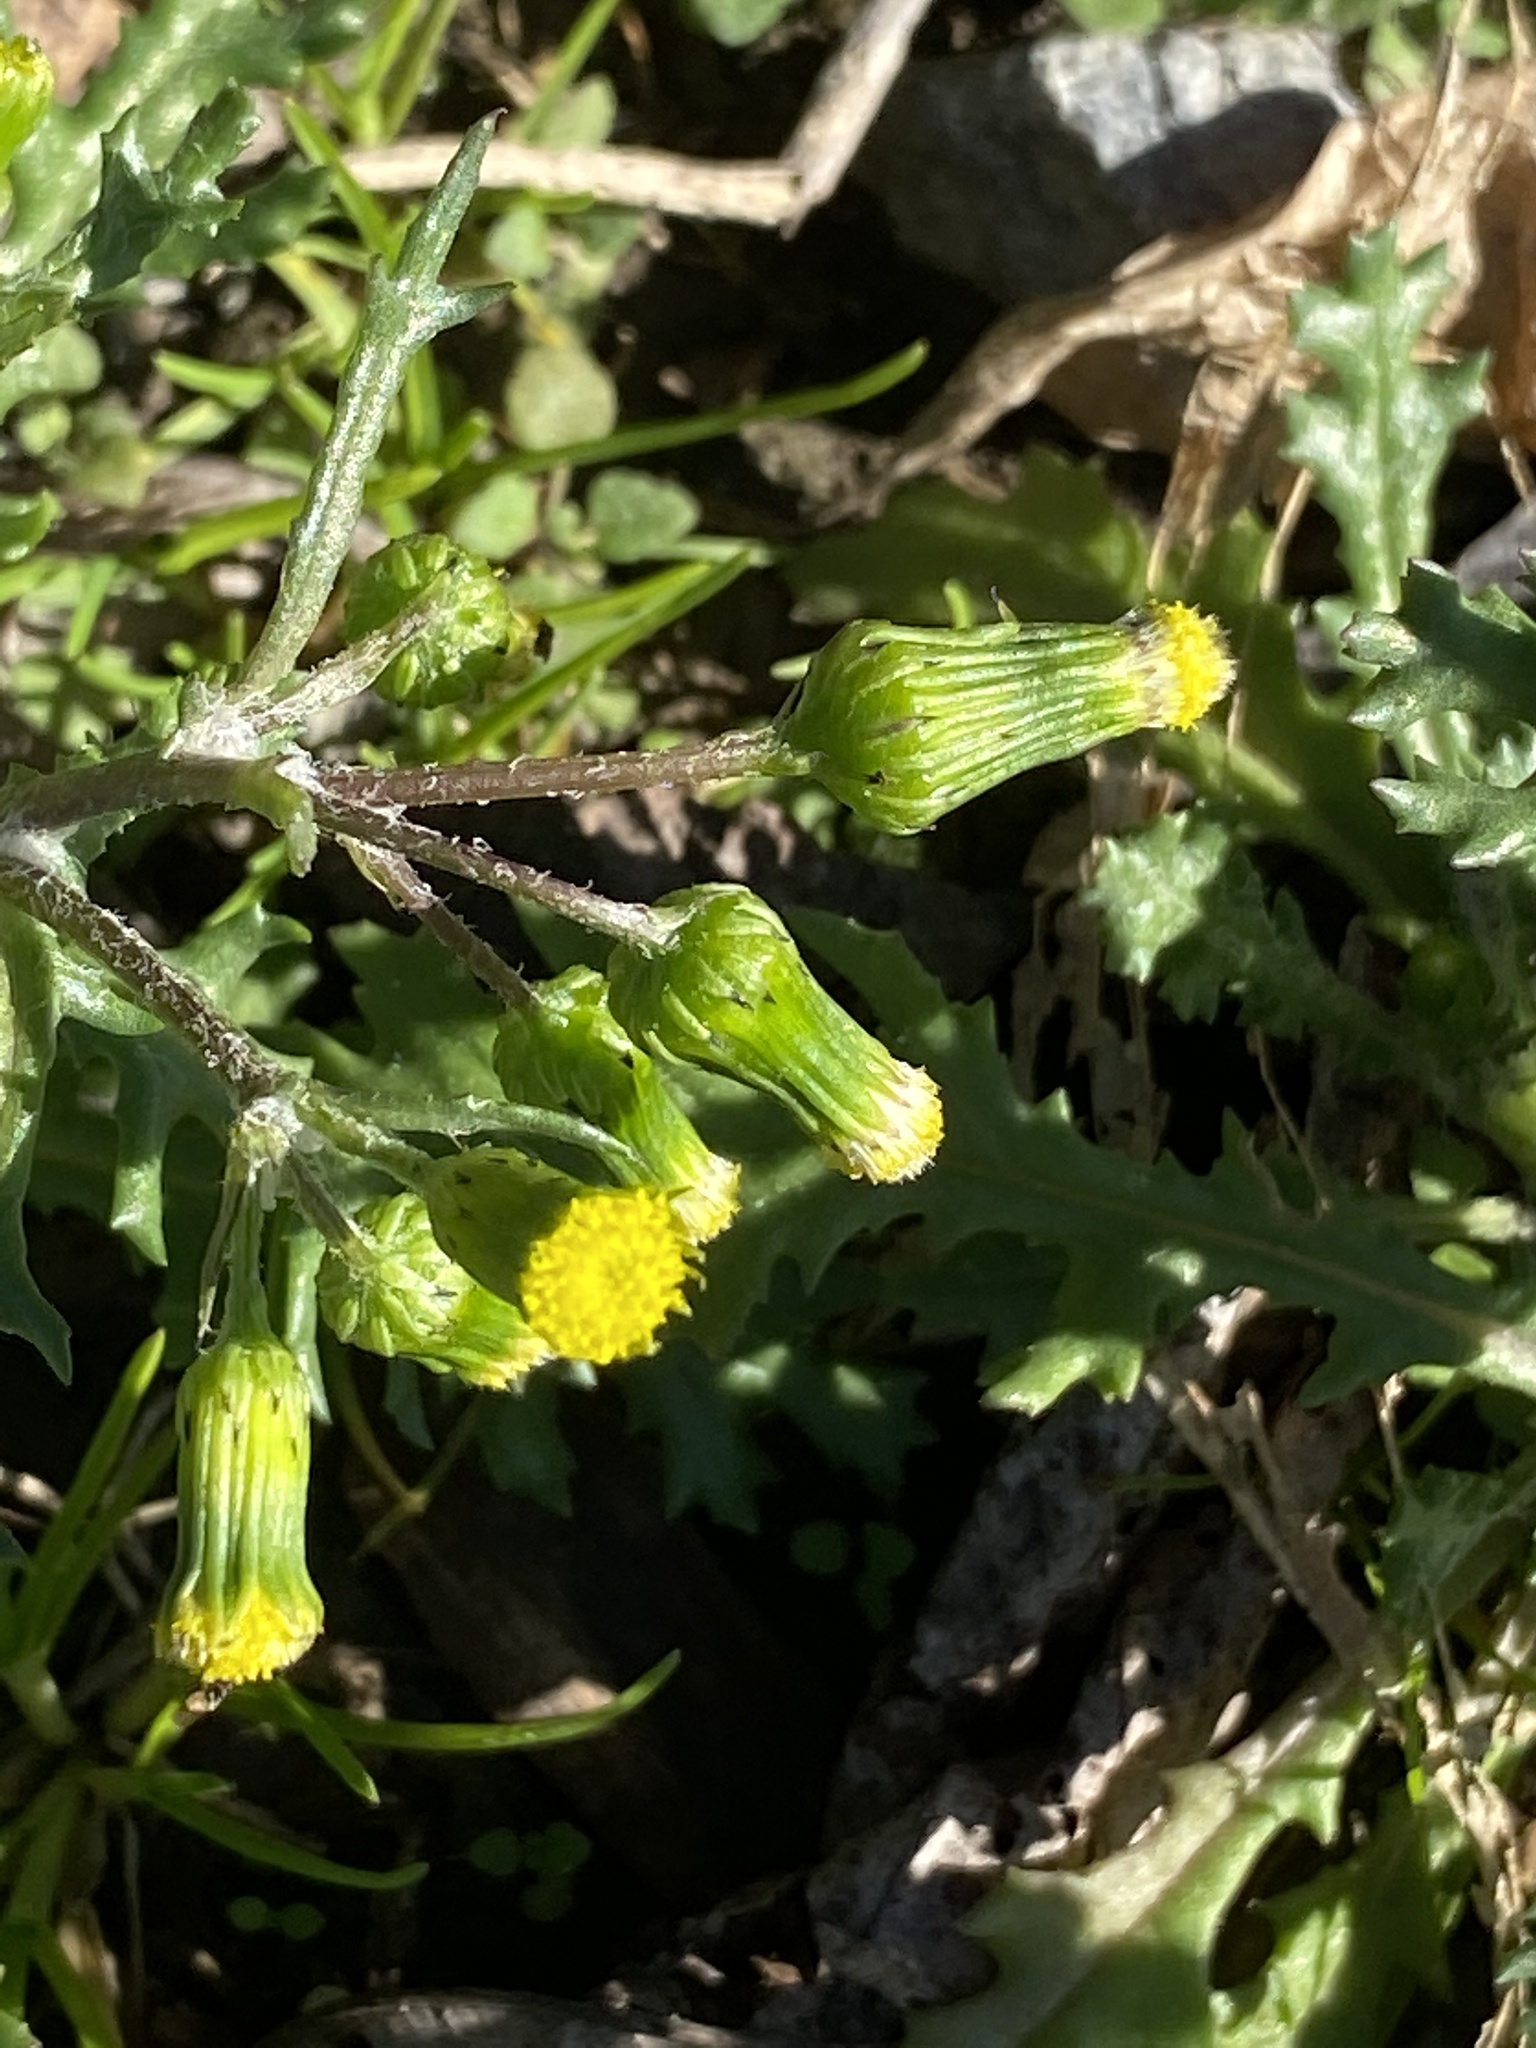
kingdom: Plantae
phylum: Tracheophyta
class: Magnoliopsida
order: Asterales
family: Asteraceae
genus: Senecio
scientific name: Senecio vulgaris
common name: Old-man-in-the-spring
